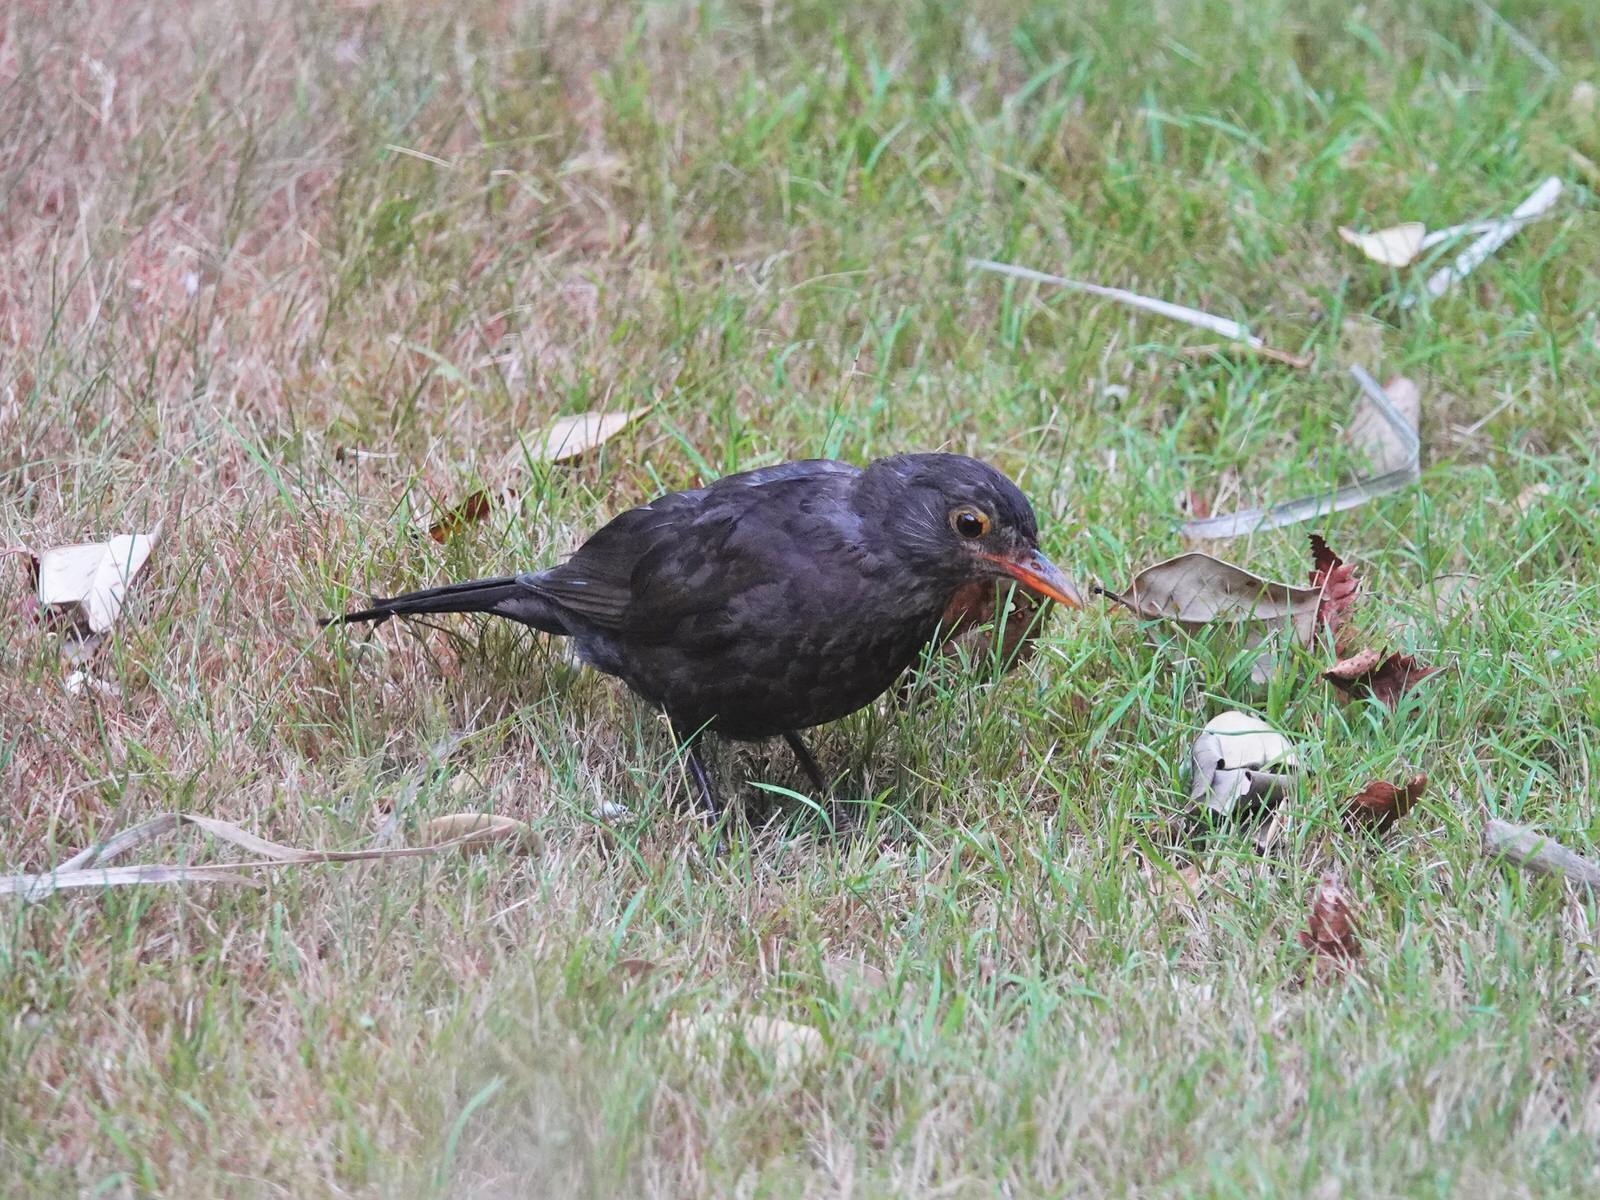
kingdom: Animalia
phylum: Chordata
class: Aves
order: Passeriformes
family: Turdidae
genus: Turdus
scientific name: Turdus merula
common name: Common blackbird
